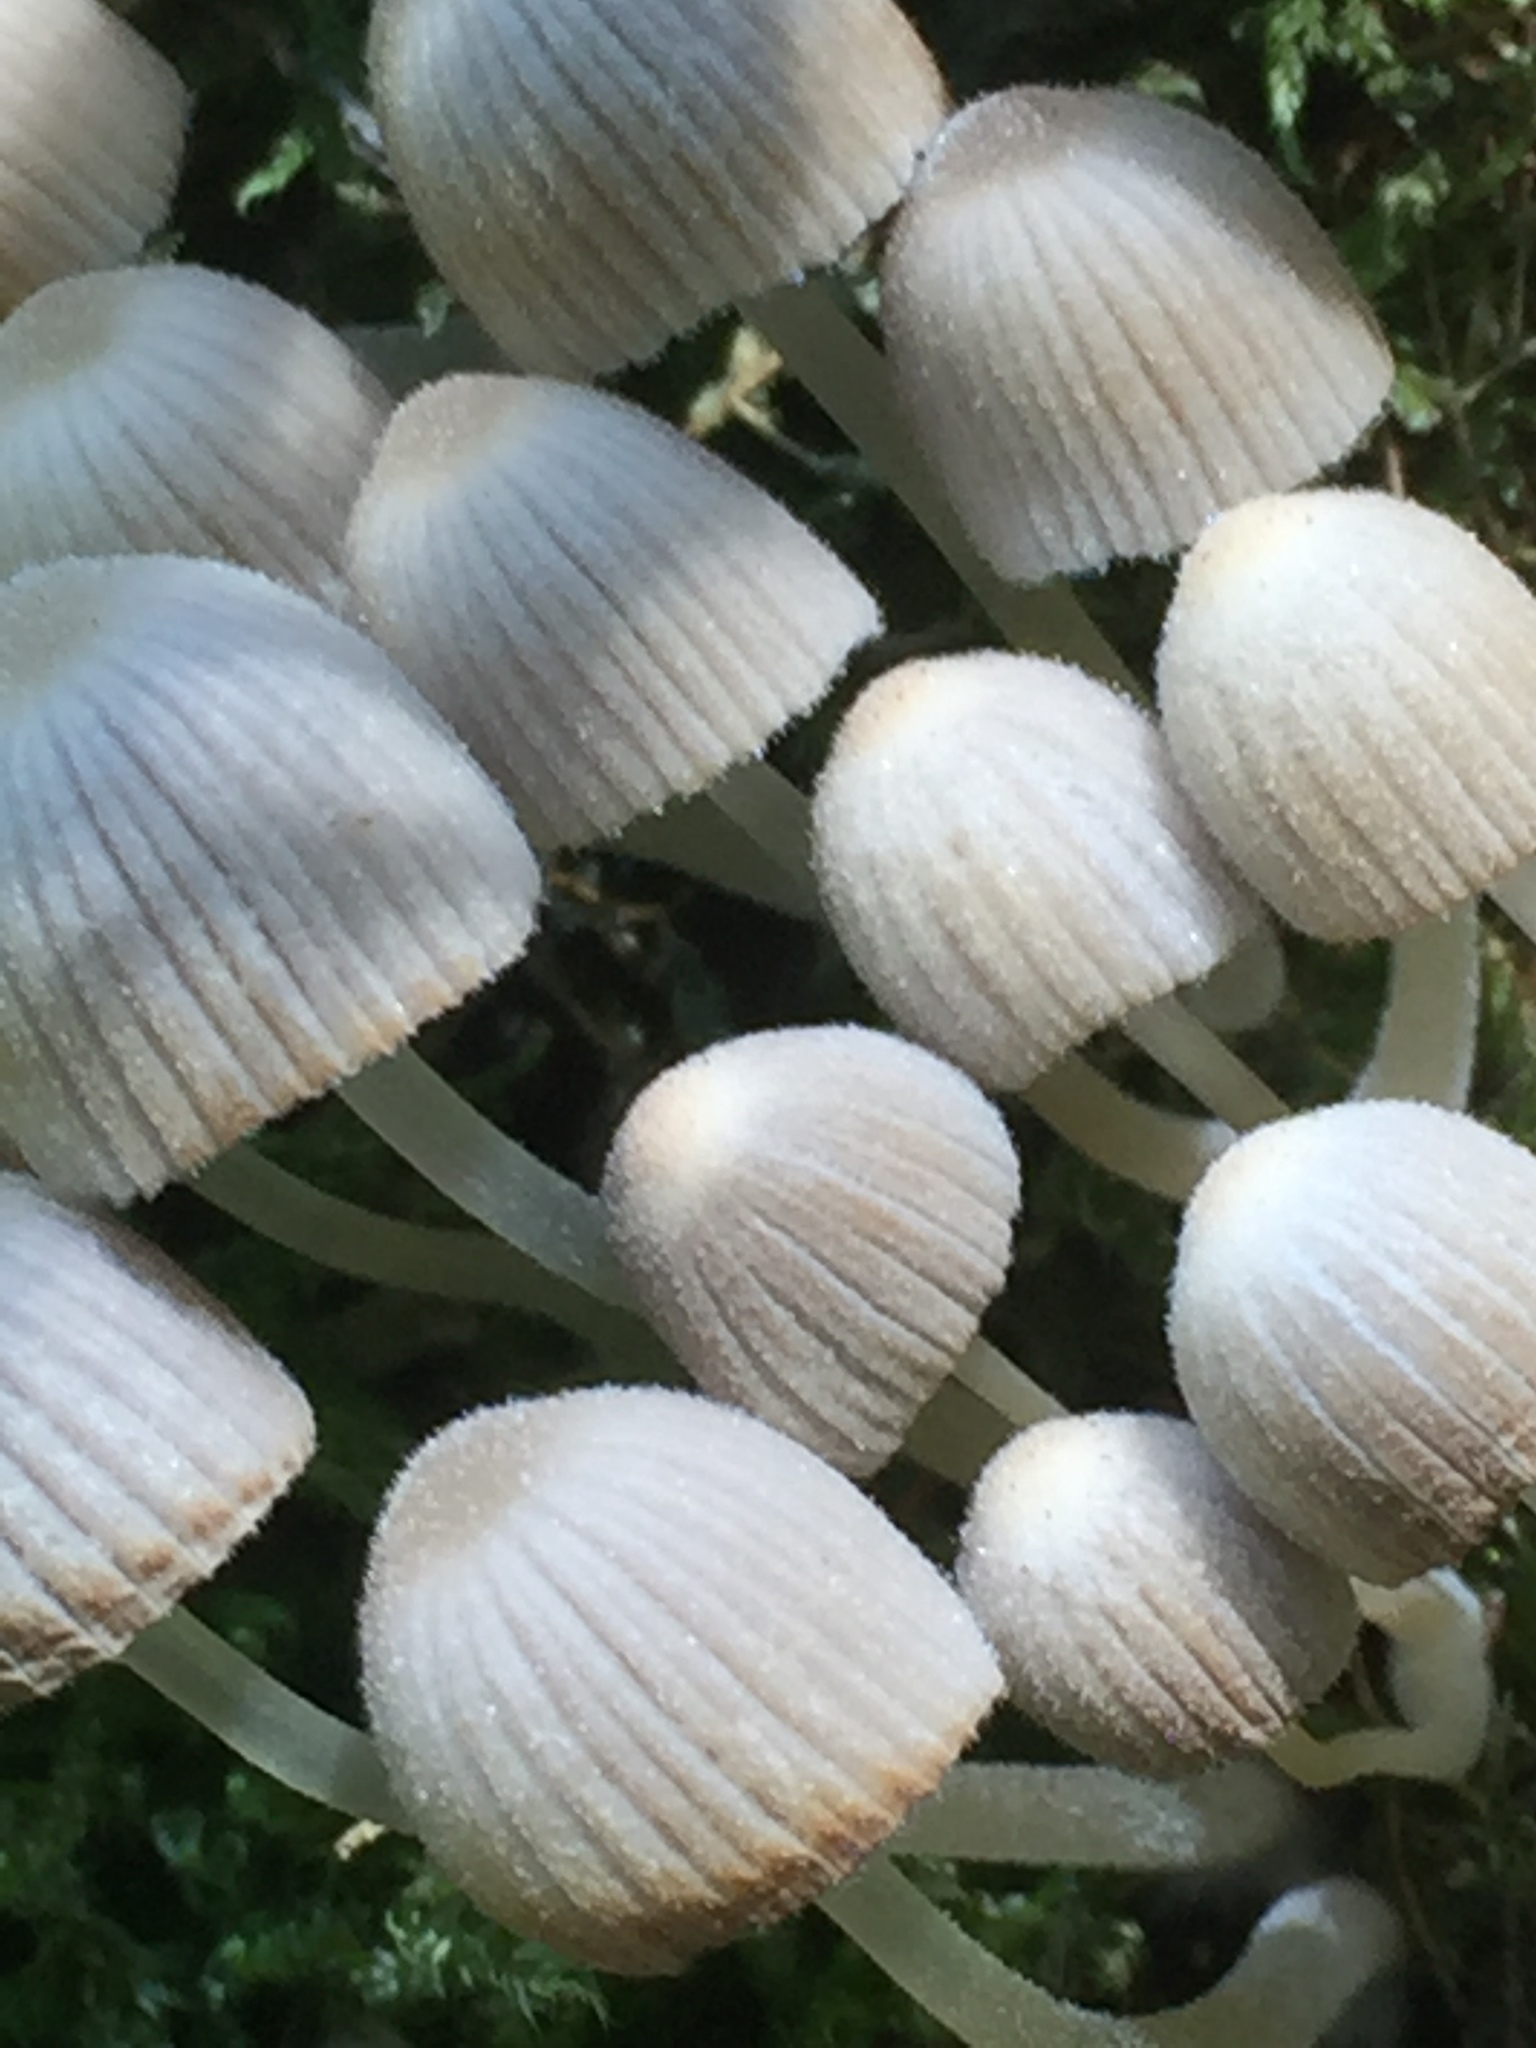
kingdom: Fungi
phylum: Basidiomycota
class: Agaricomycetes
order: Agaricales
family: Psathyrellaceae
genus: Coprinellus
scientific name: Coprinellus disseminatus
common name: Fairies' bonnets
